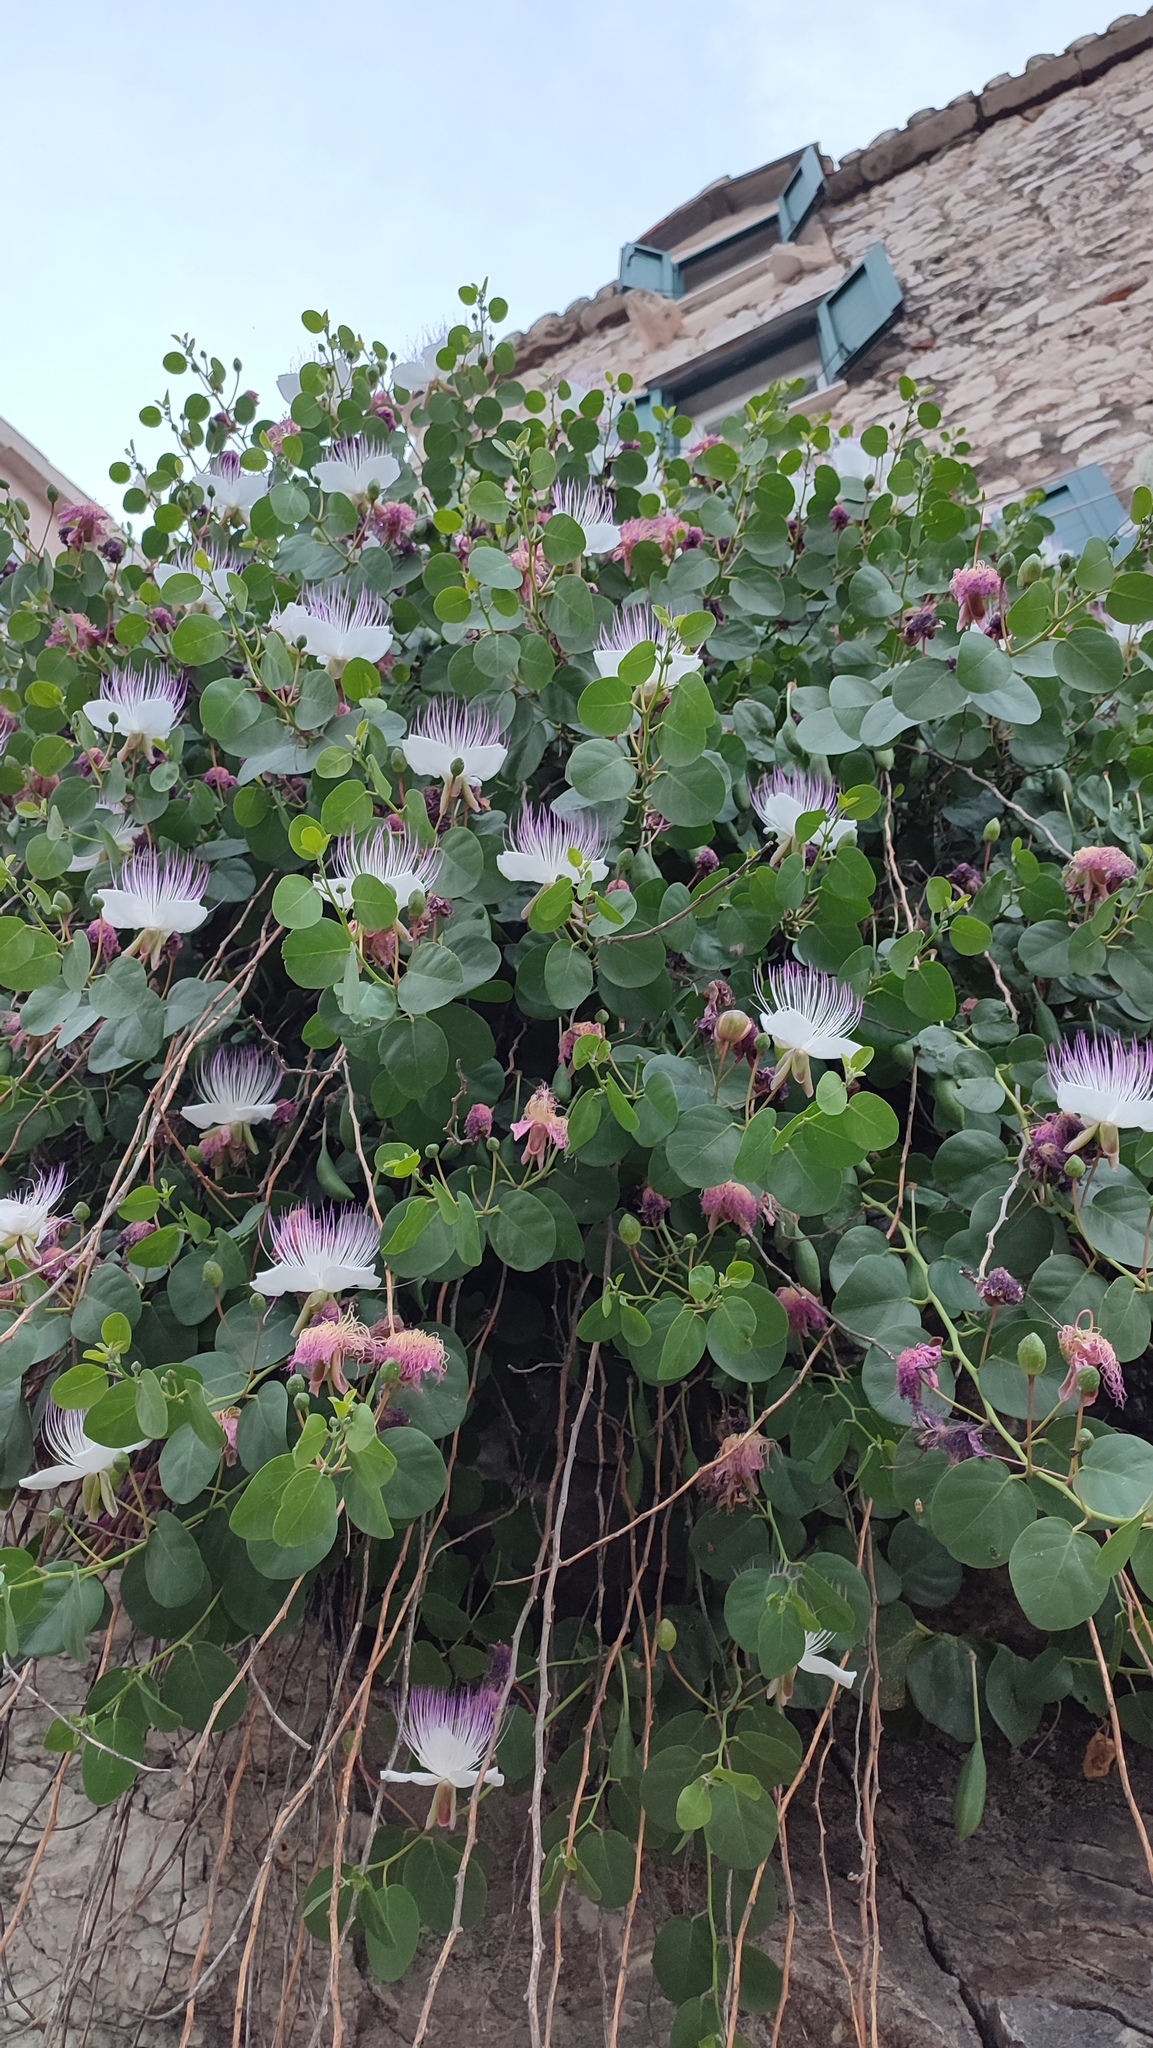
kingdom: Plantae
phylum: Tracheophyta
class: Magnoliopsida
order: Brassicales
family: Capparaceae
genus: Capparis
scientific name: Capparis orientalis
